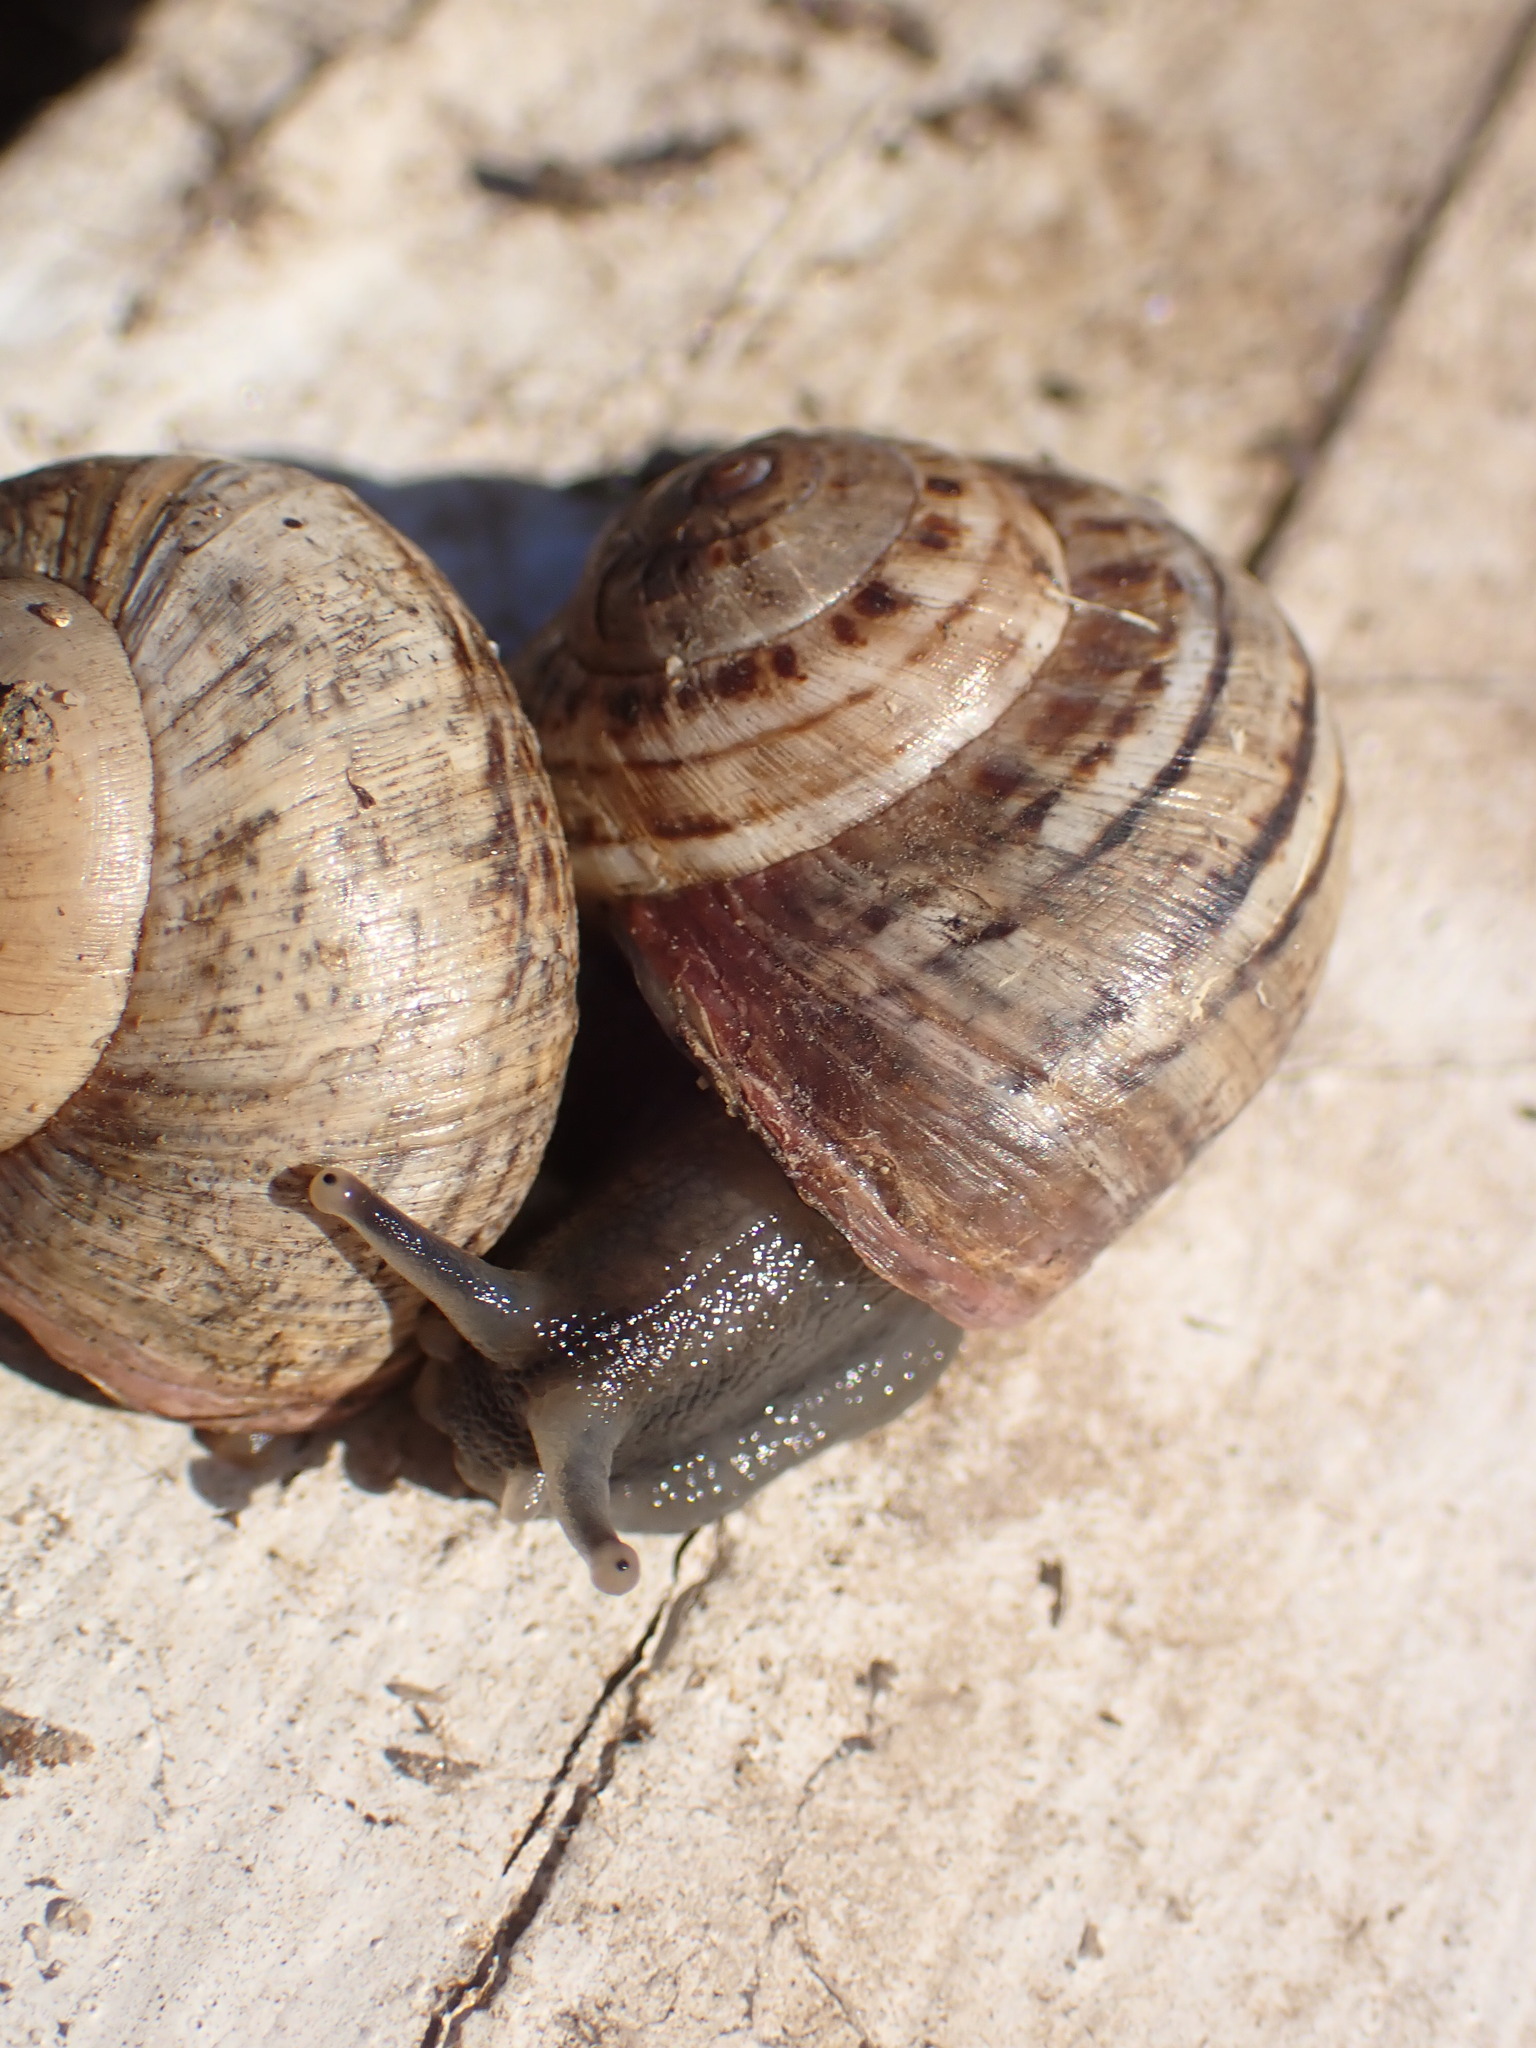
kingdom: Animalia
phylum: Mollusca
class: Gastropoda
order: Stylommatophora
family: Helicidae
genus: Theba
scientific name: Theba pisana
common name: White snail
